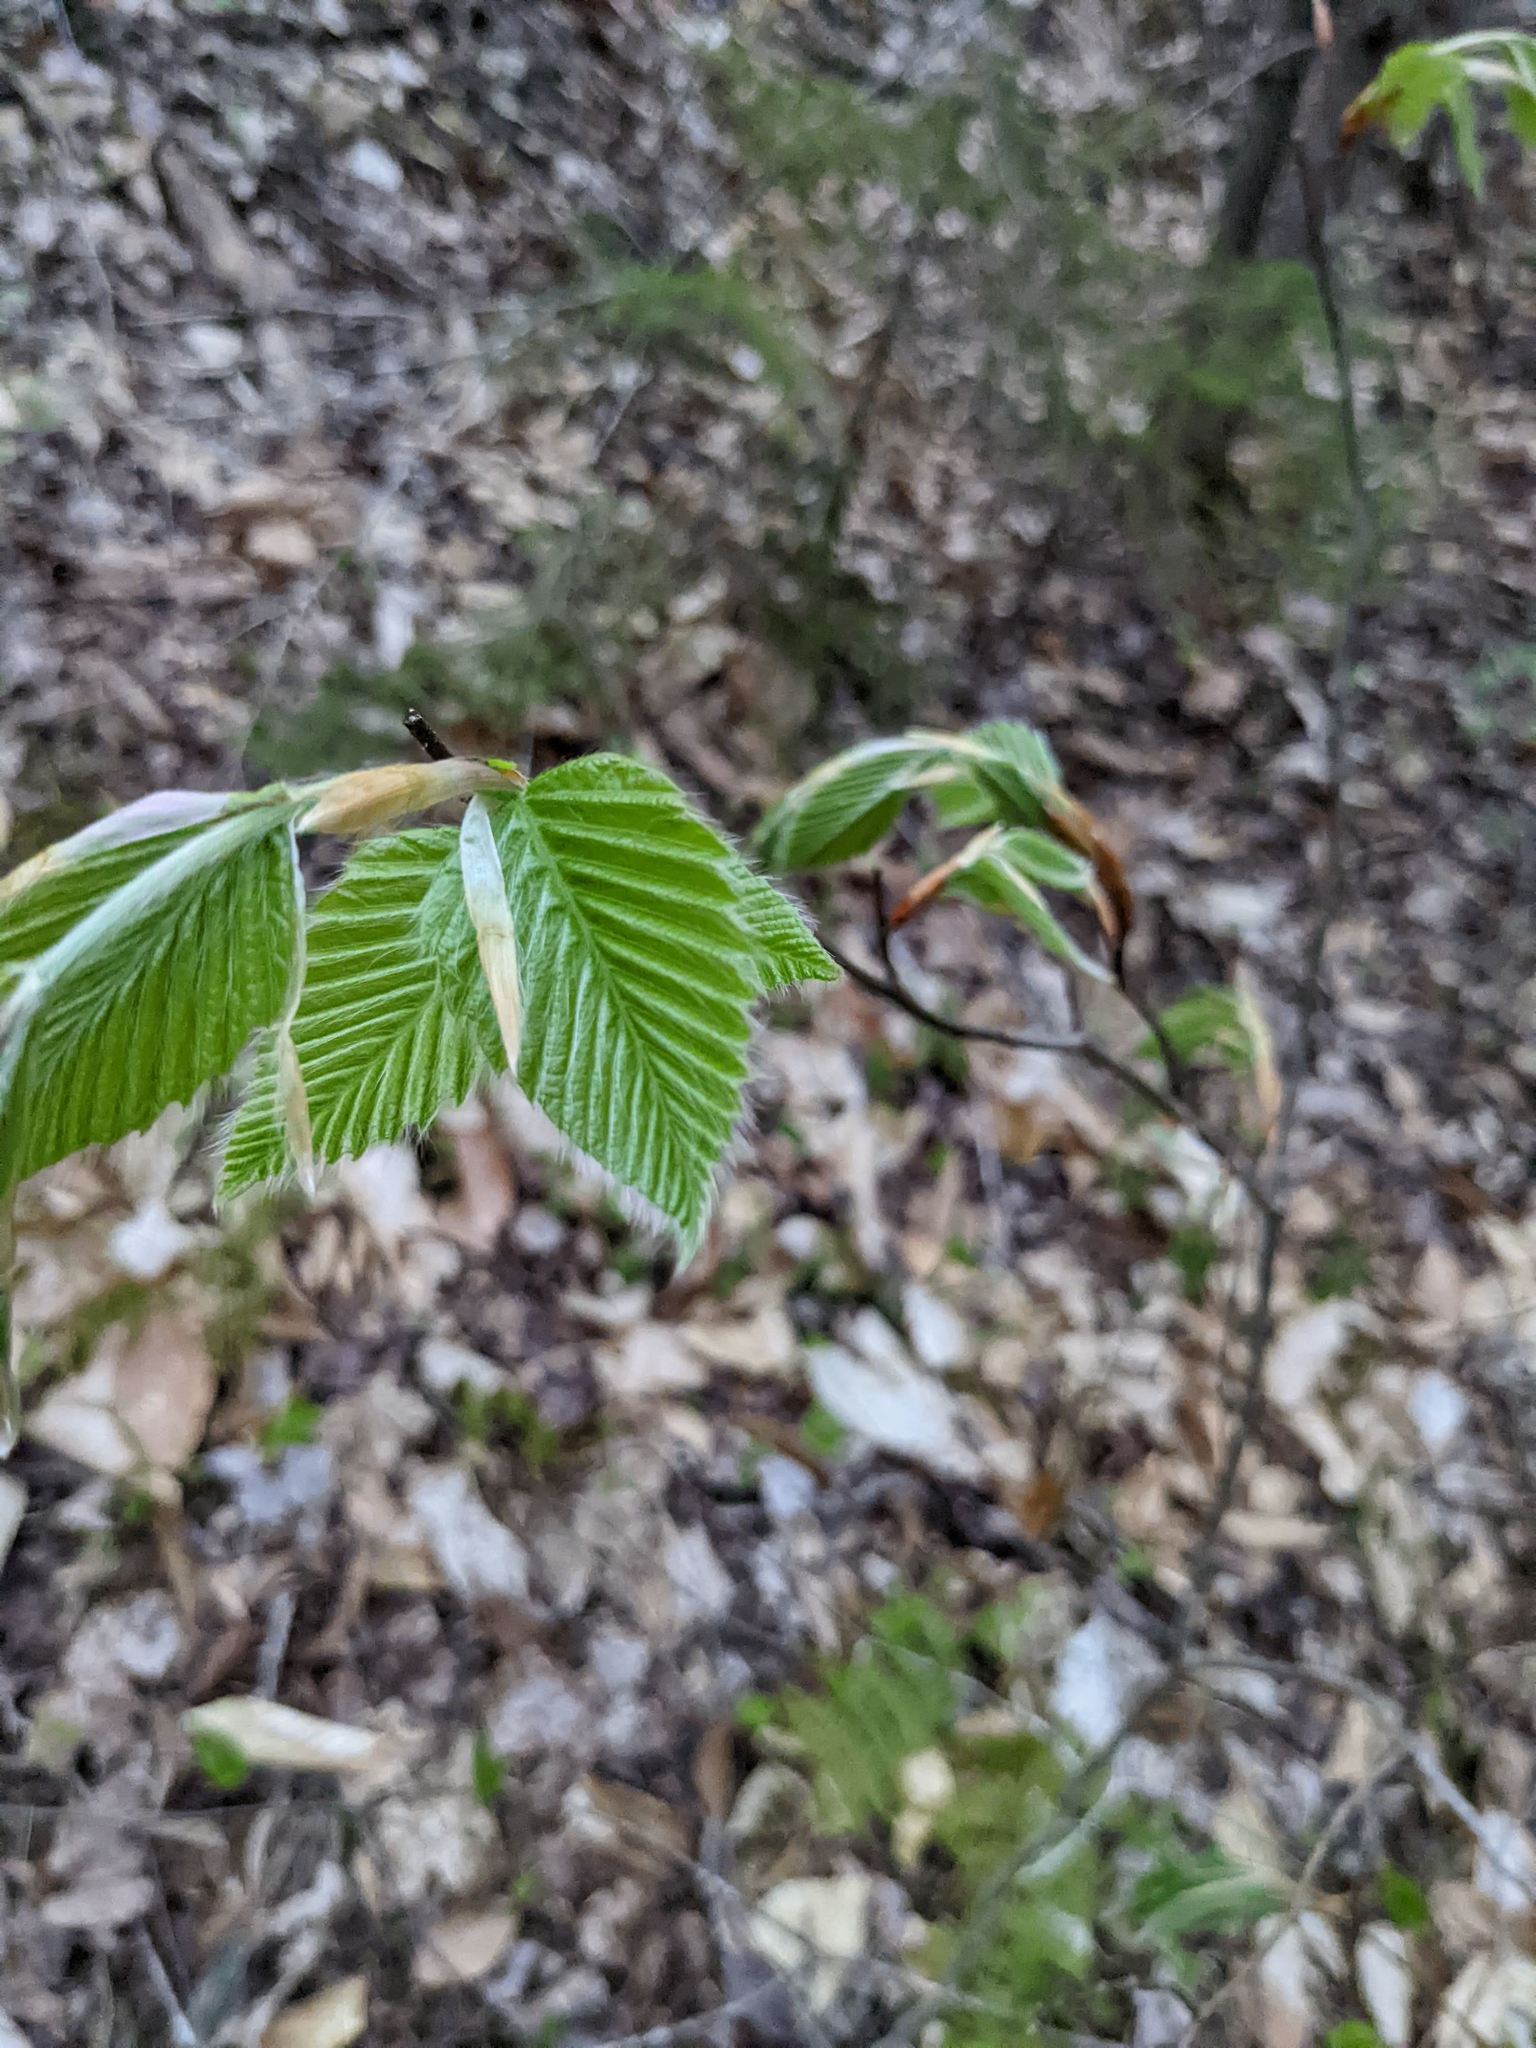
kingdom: Plantae
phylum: Tracheophyta
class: Magnoliopsida
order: Fagales
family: Fagaceae
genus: Fagus
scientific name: Fagus grandifolia
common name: American beech
